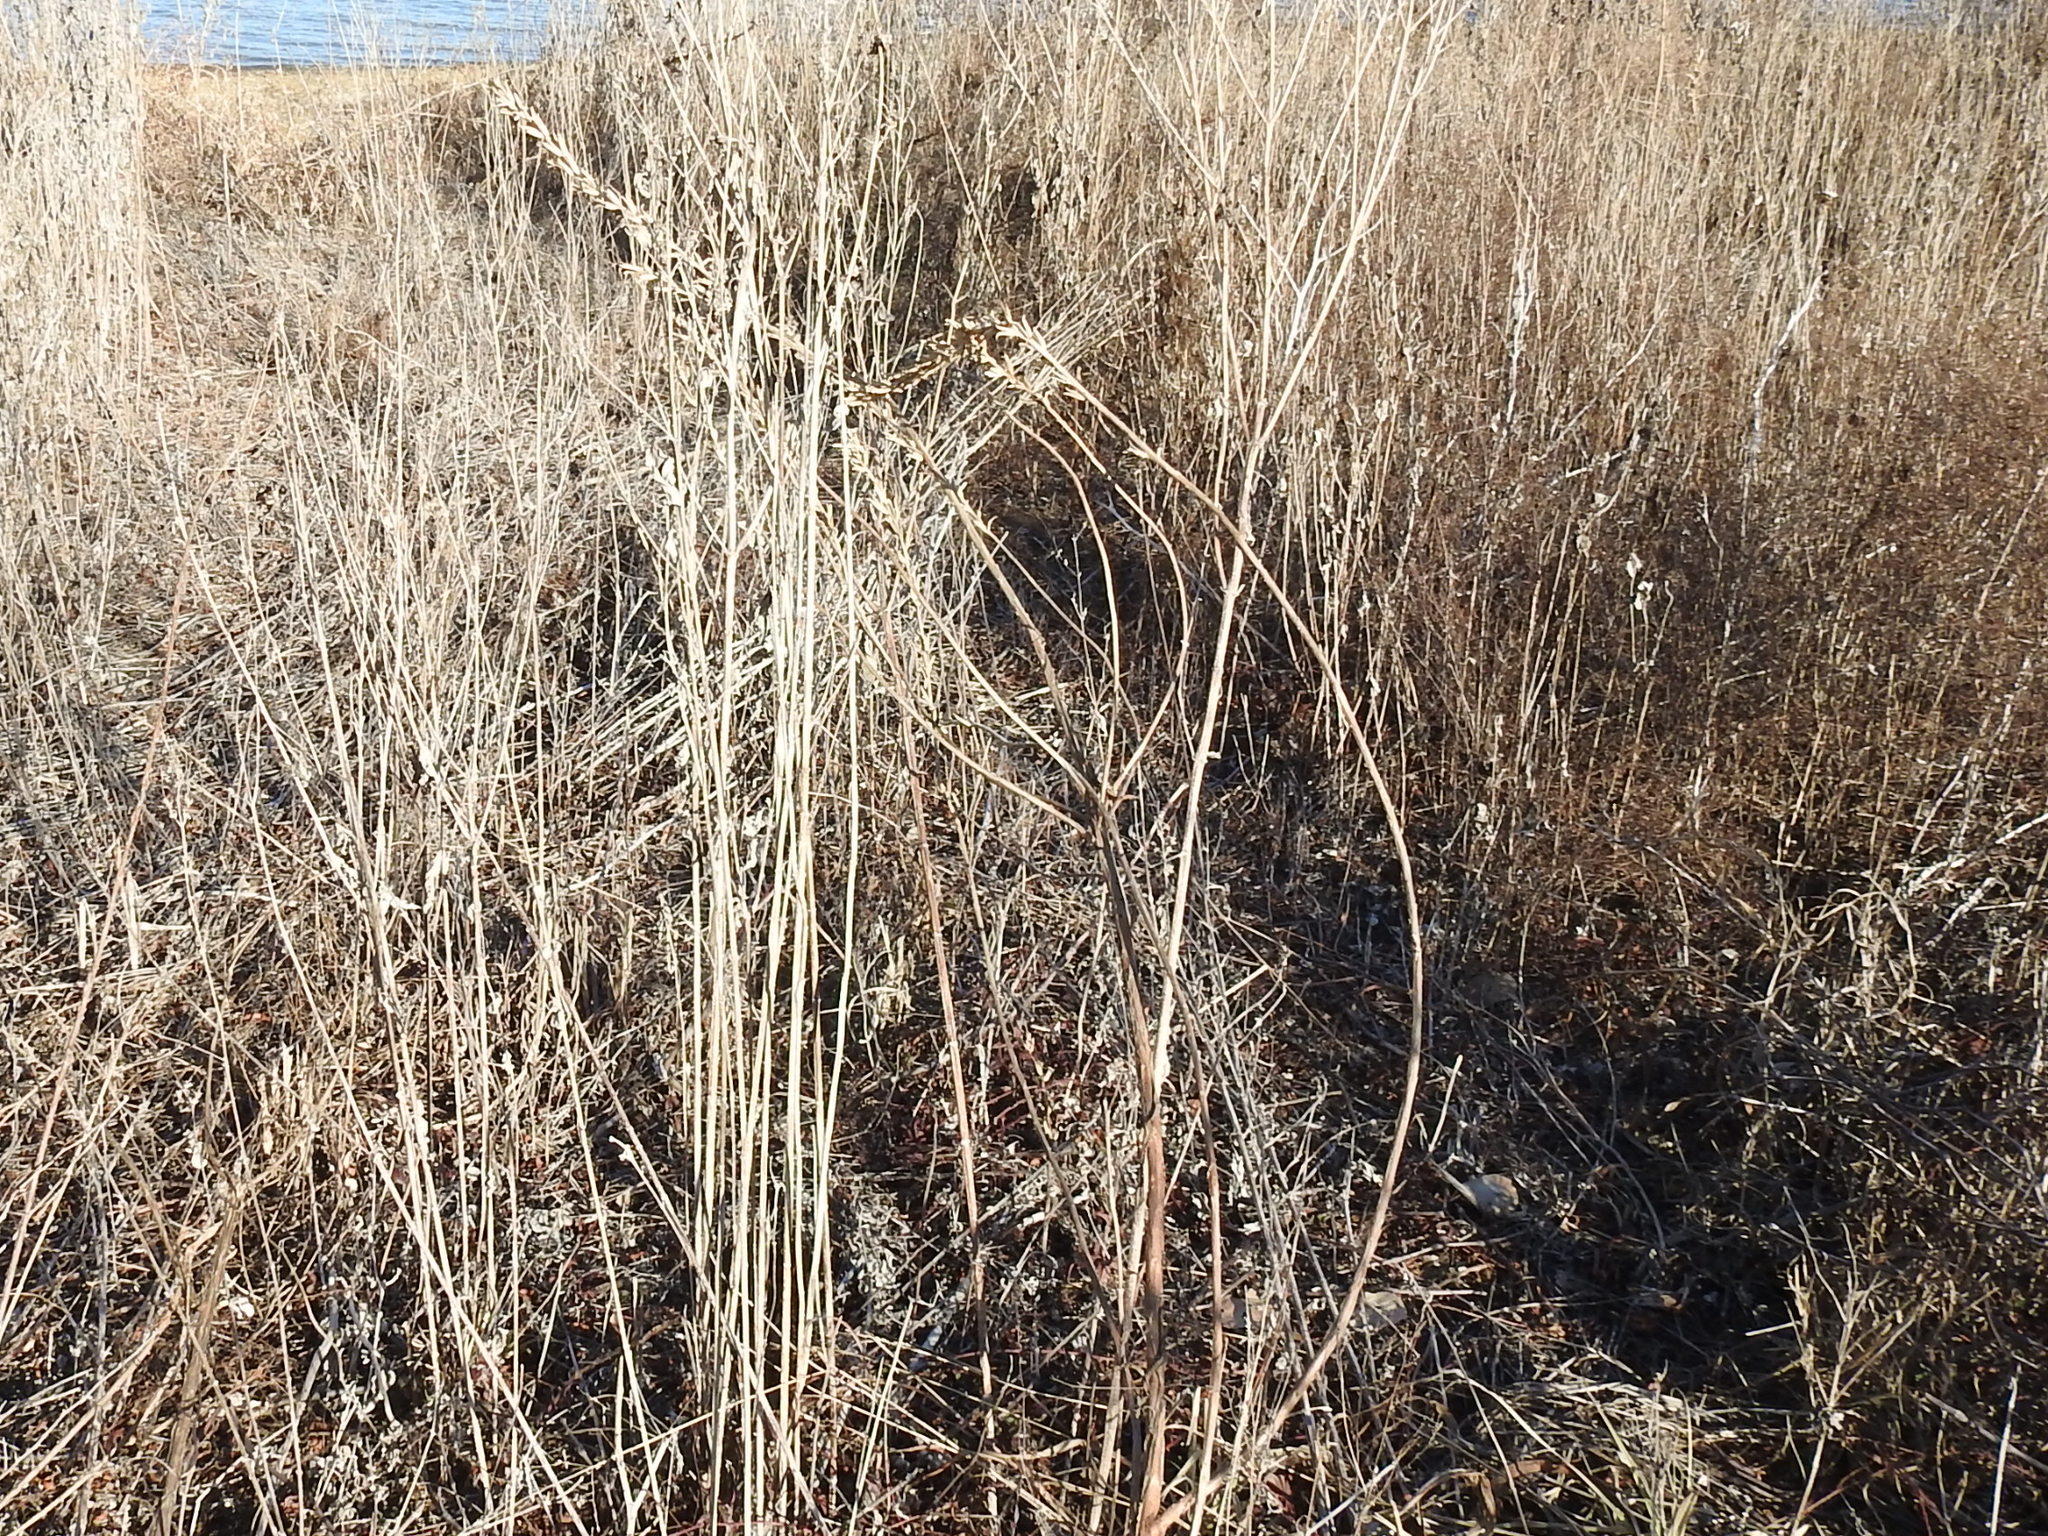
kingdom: Plantae
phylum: Tracheophyta
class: Magnoliopsida
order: Myrtales
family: Onagraceae
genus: Oenothera
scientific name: Oenothera biennis
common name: Common evening-primrose
